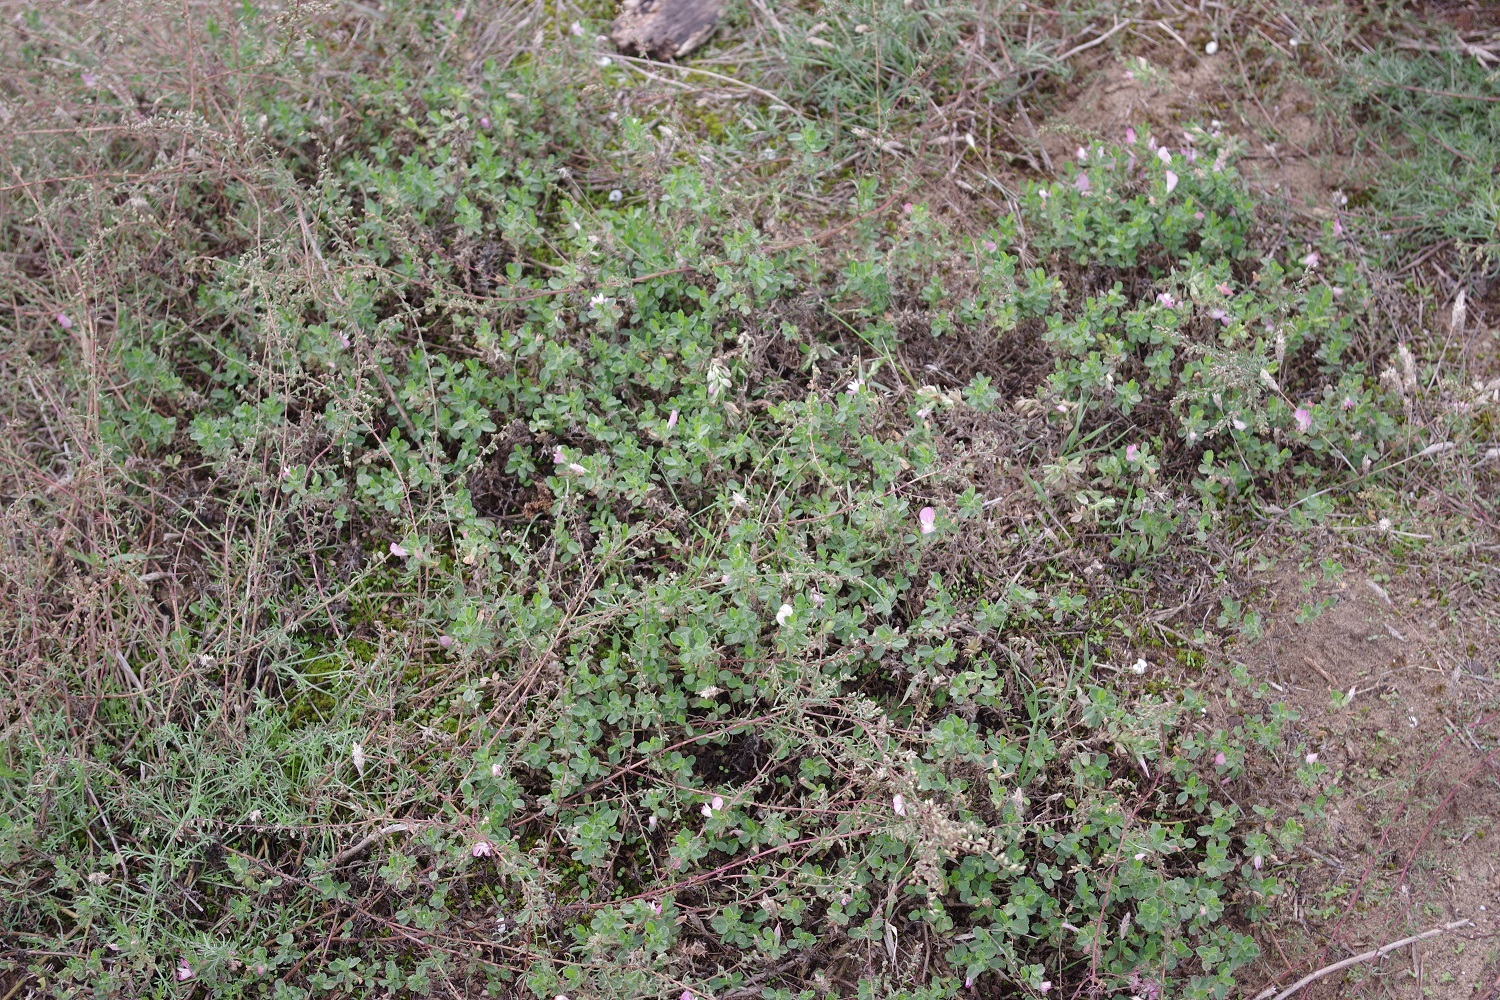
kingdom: Plantae
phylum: Tracheophyta
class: Magnoliopsida
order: Fabales
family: Fabaceae
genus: Ononis
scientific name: Ononis spinosa
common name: Spiny restharrow
